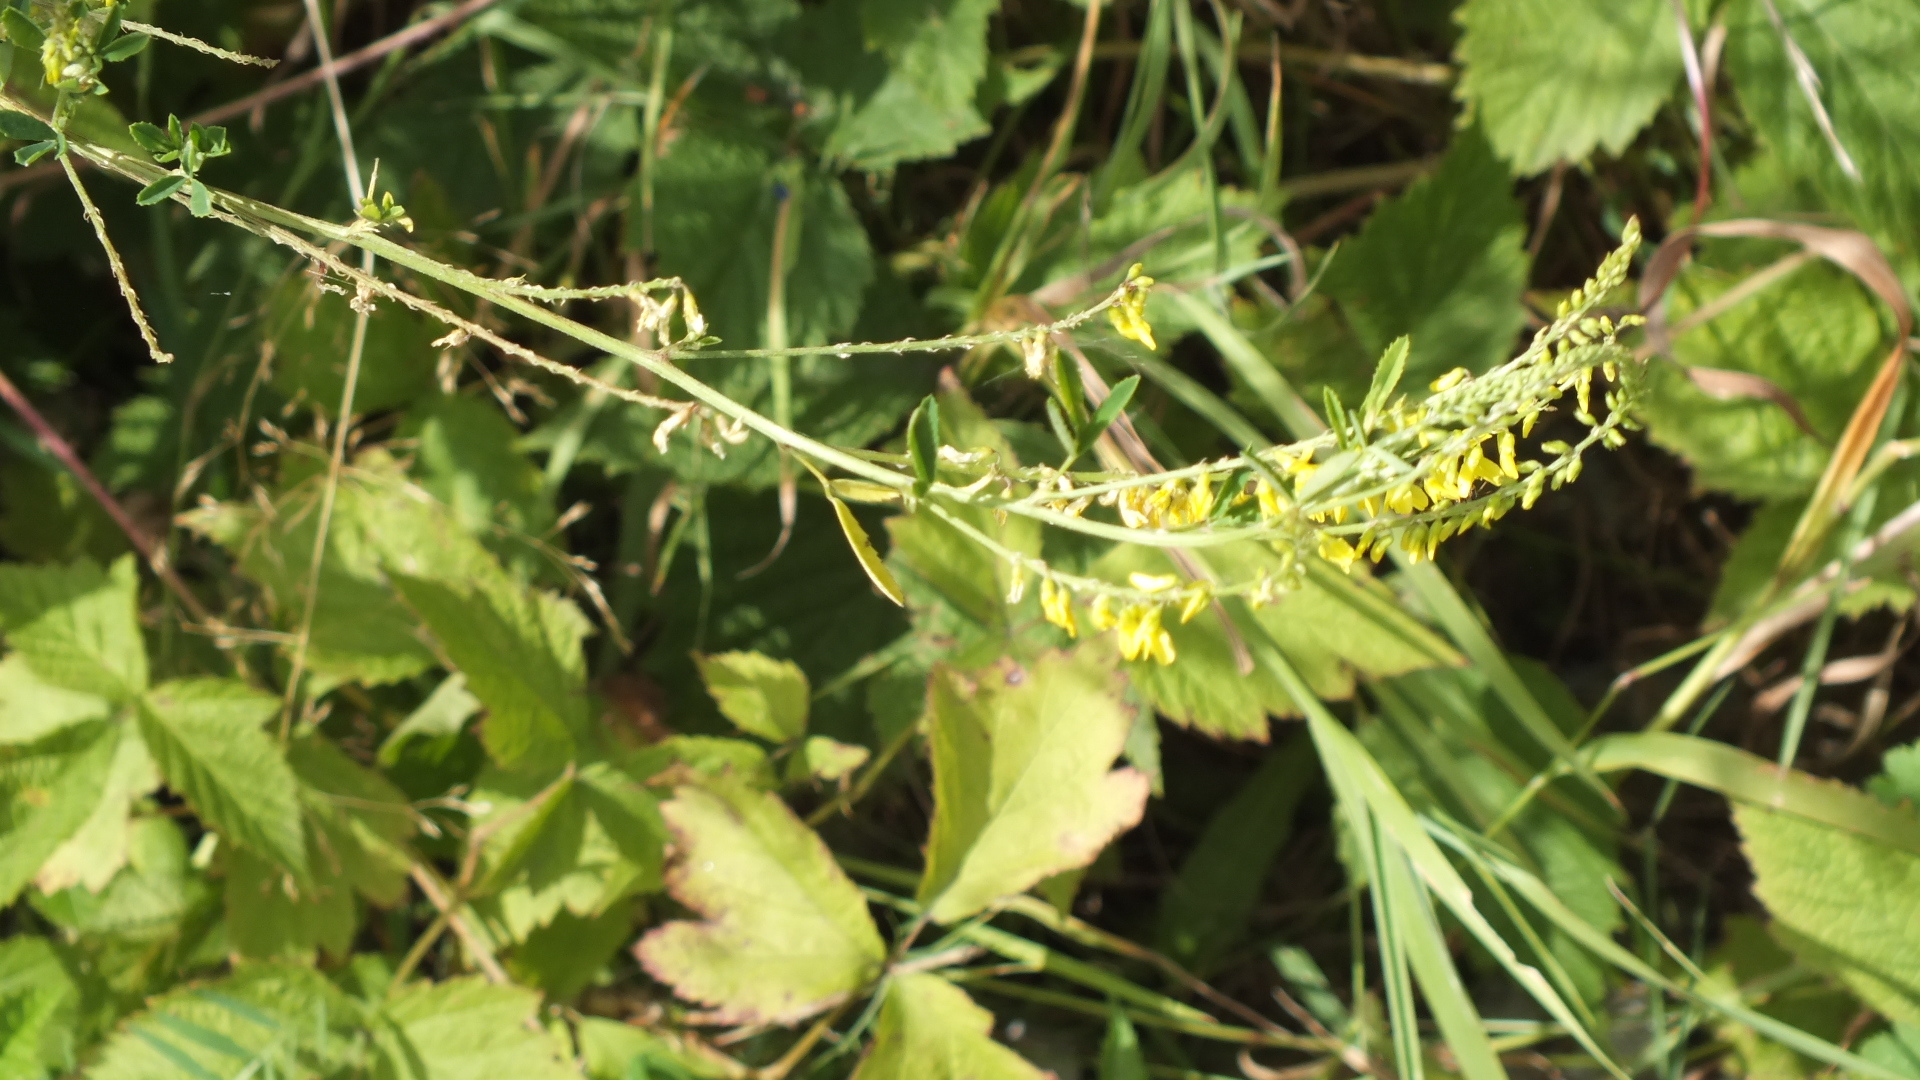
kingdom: Plantae
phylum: Tracheophyta
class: Magnoliopsida
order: Fabales
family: Fabaceae
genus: Melilotus
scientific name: Melilotus officinalis
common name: Sweetclover
